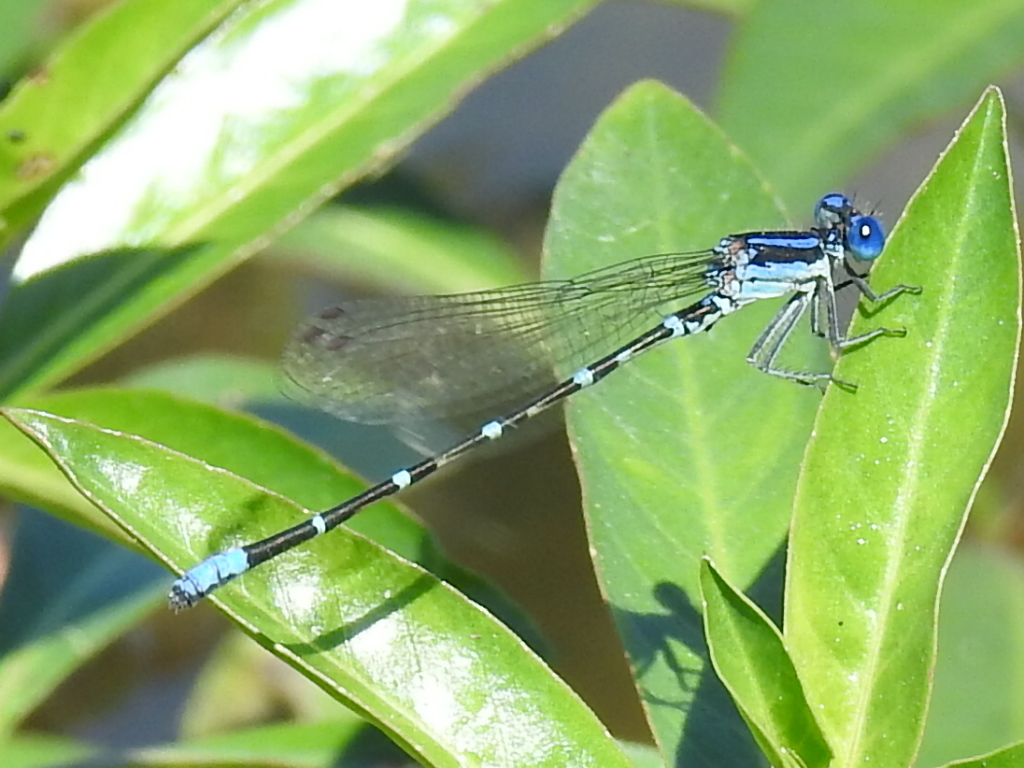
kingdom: Animalia
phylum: Arthropoda
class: Insecta
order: Odonata
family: Coenagrionidae
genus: Argia
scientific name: Argia sedula
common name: Blue-ringed dancer
